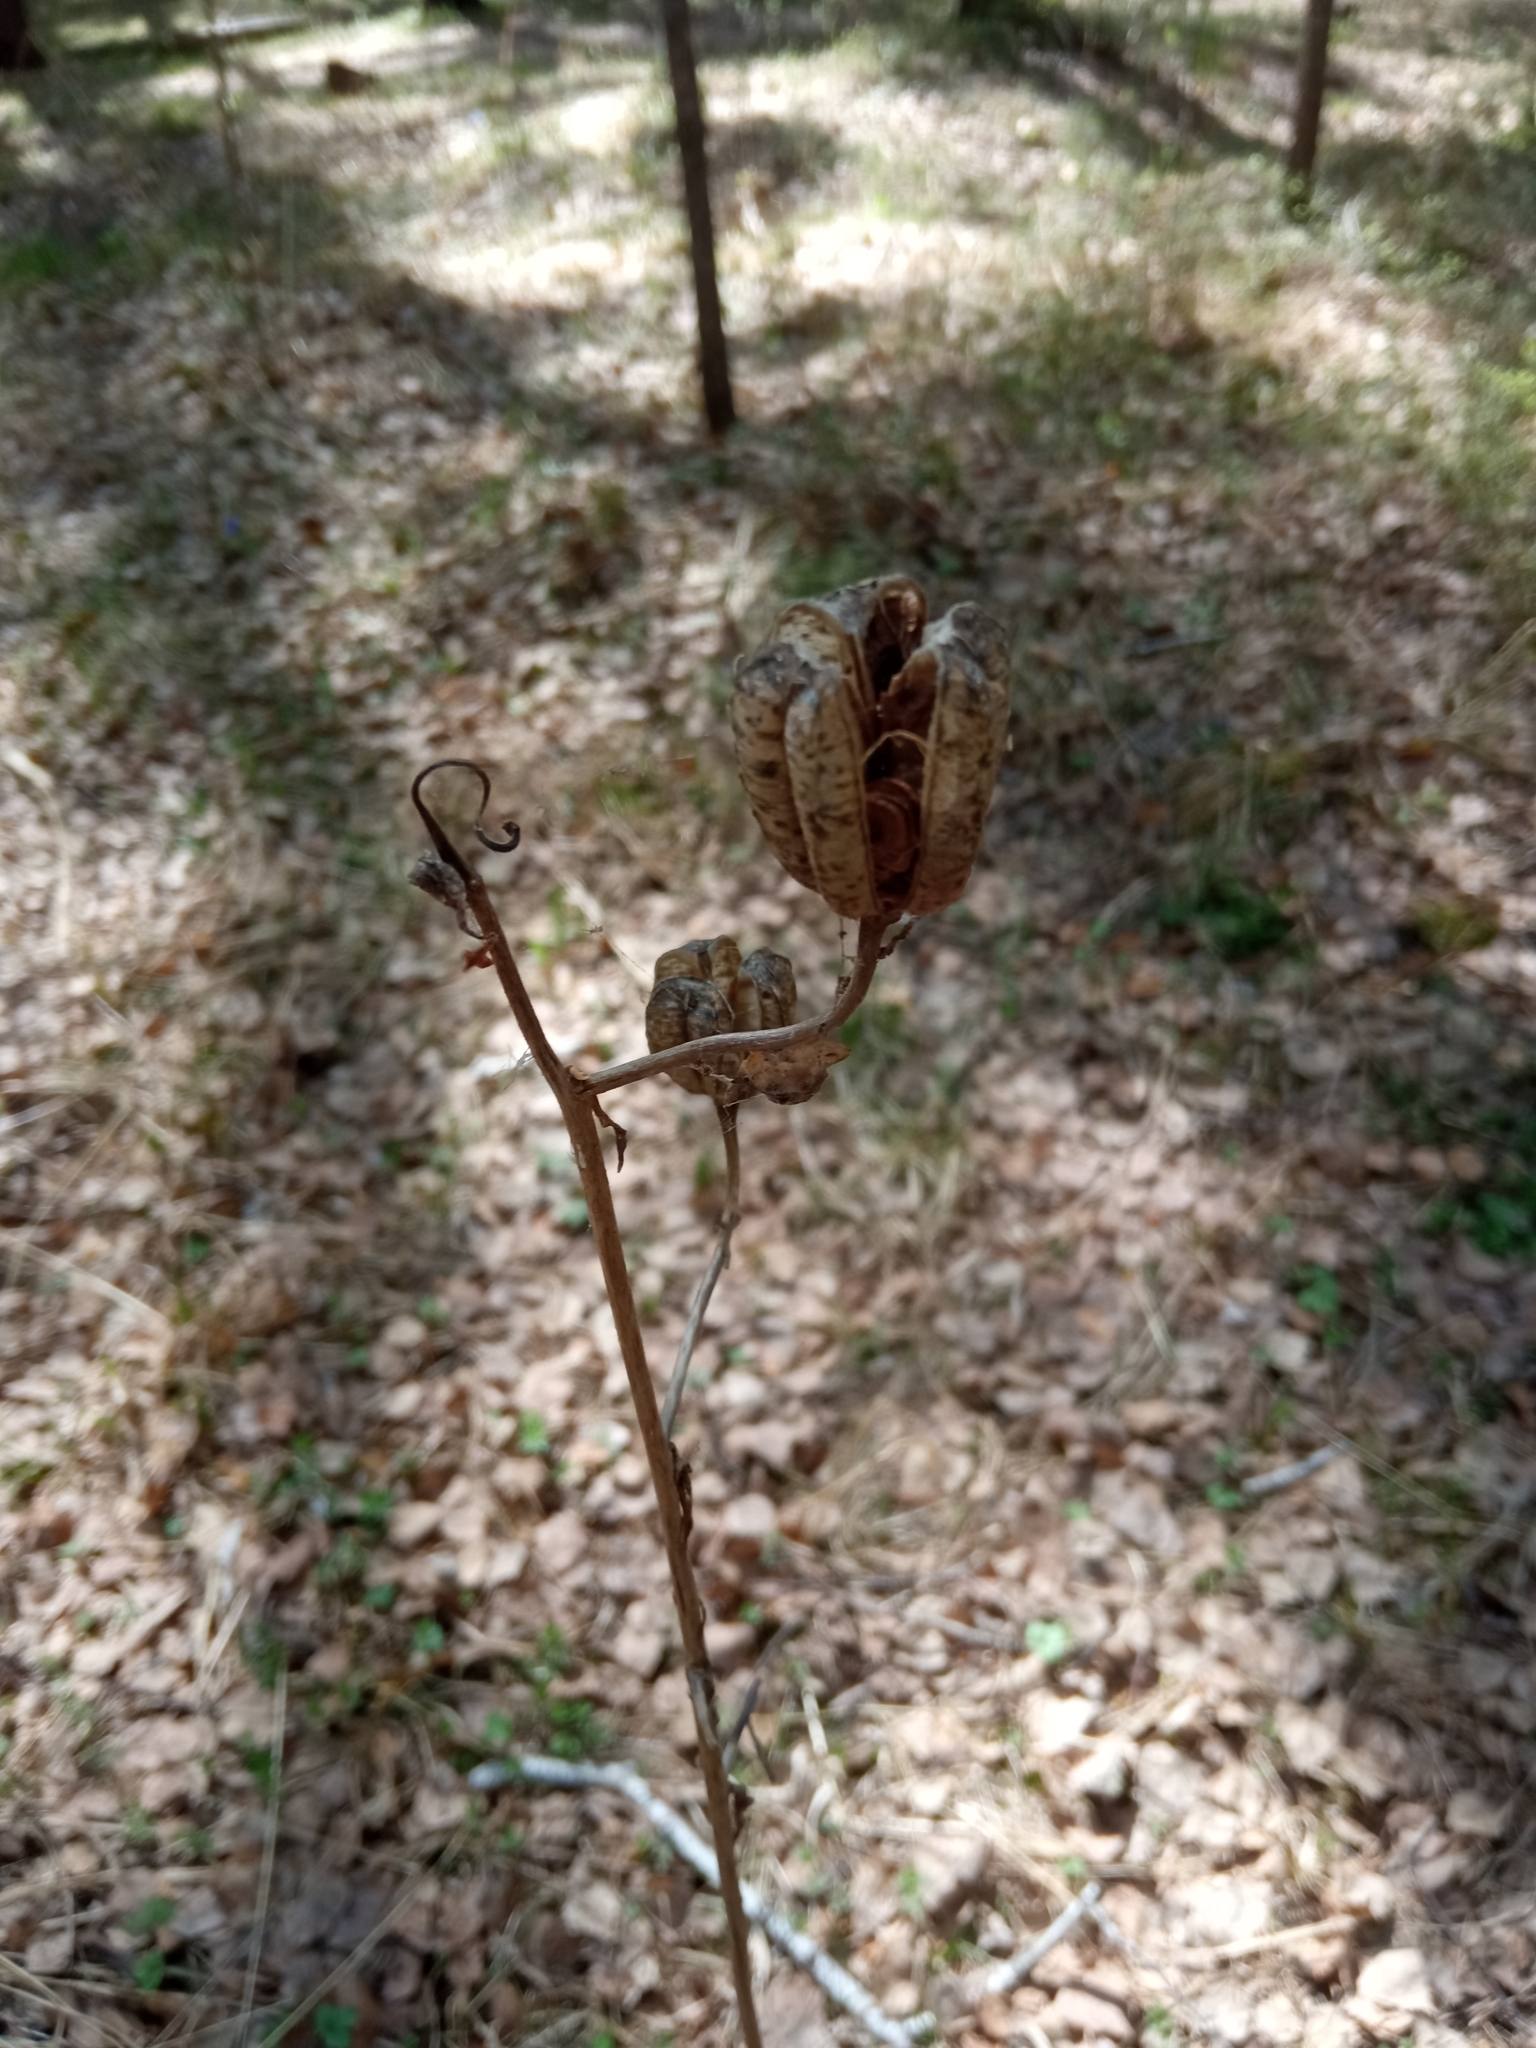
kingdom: Plantae
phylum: Tracheophyta
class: Liliopsida
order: Liliales
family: Liliaceae
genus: Lilium
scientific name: Lilium martagon
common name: Martagon lily
